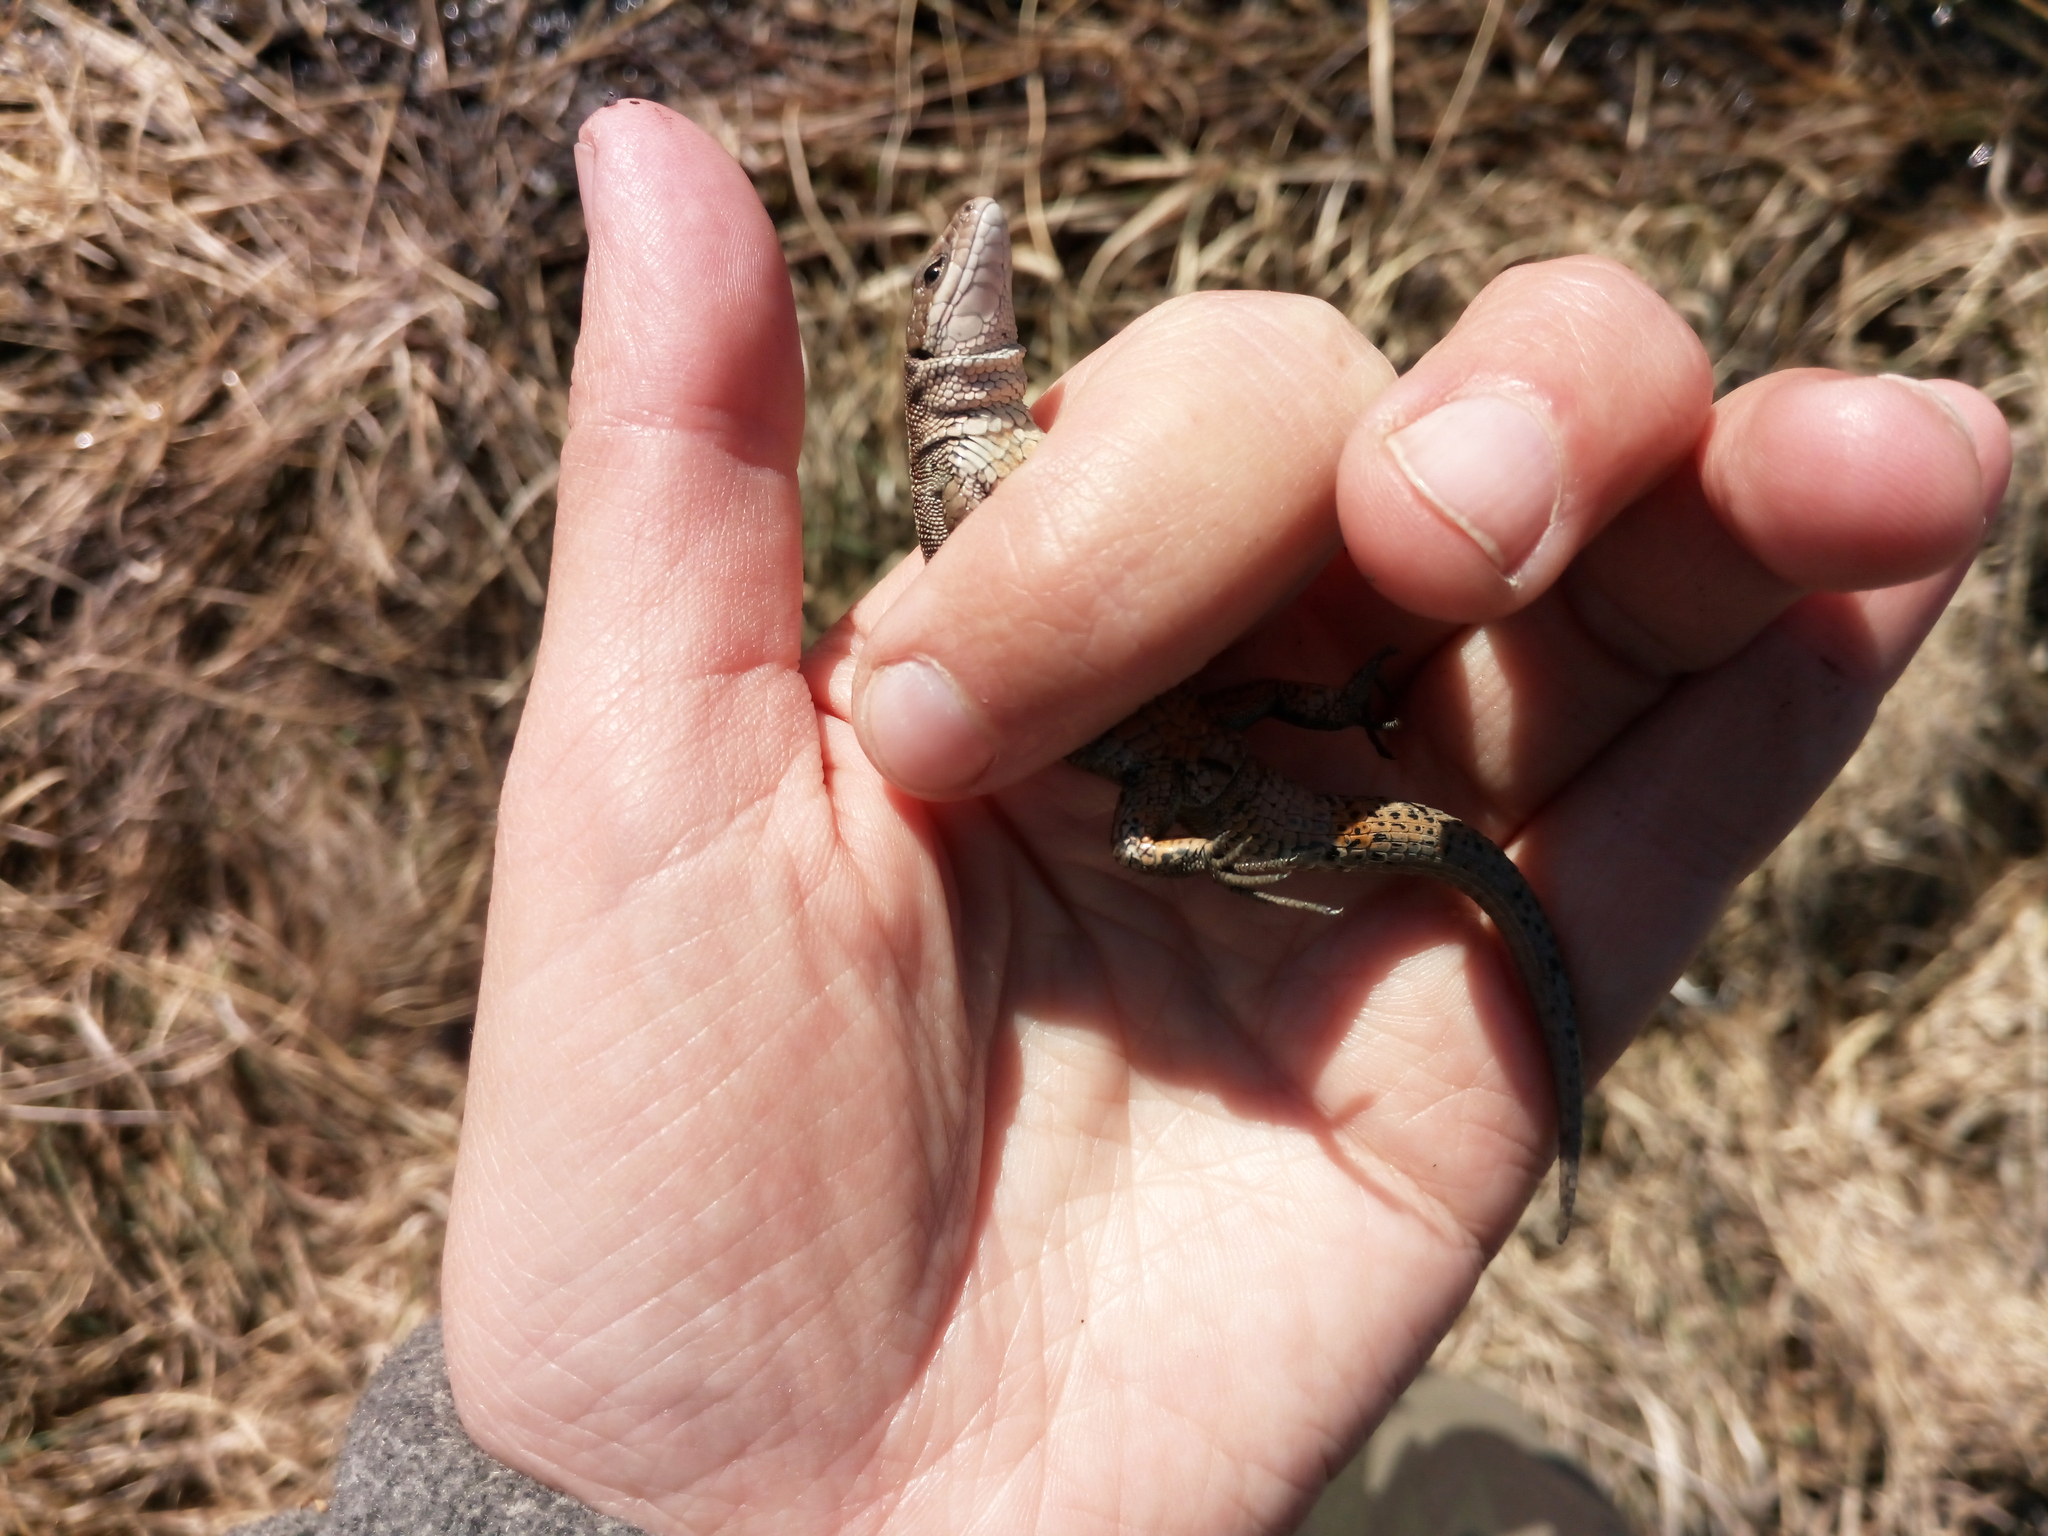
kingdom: Animalia
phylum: Chordata
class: Squamata
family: Lacertidae
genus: Zootoca
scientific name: Zootoca vivipara
